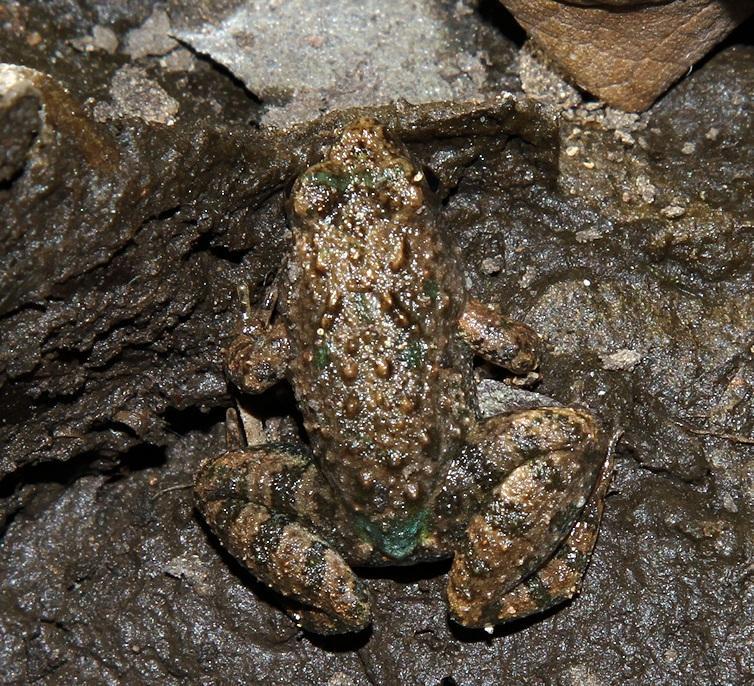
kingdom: Animalia
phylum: Chordata
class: Amphibia
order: Anura
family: Phrynobatrachidae
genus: Phrynobatrachus
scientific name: Phrynobatrachus natalensis
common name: Snoring puddle frog
